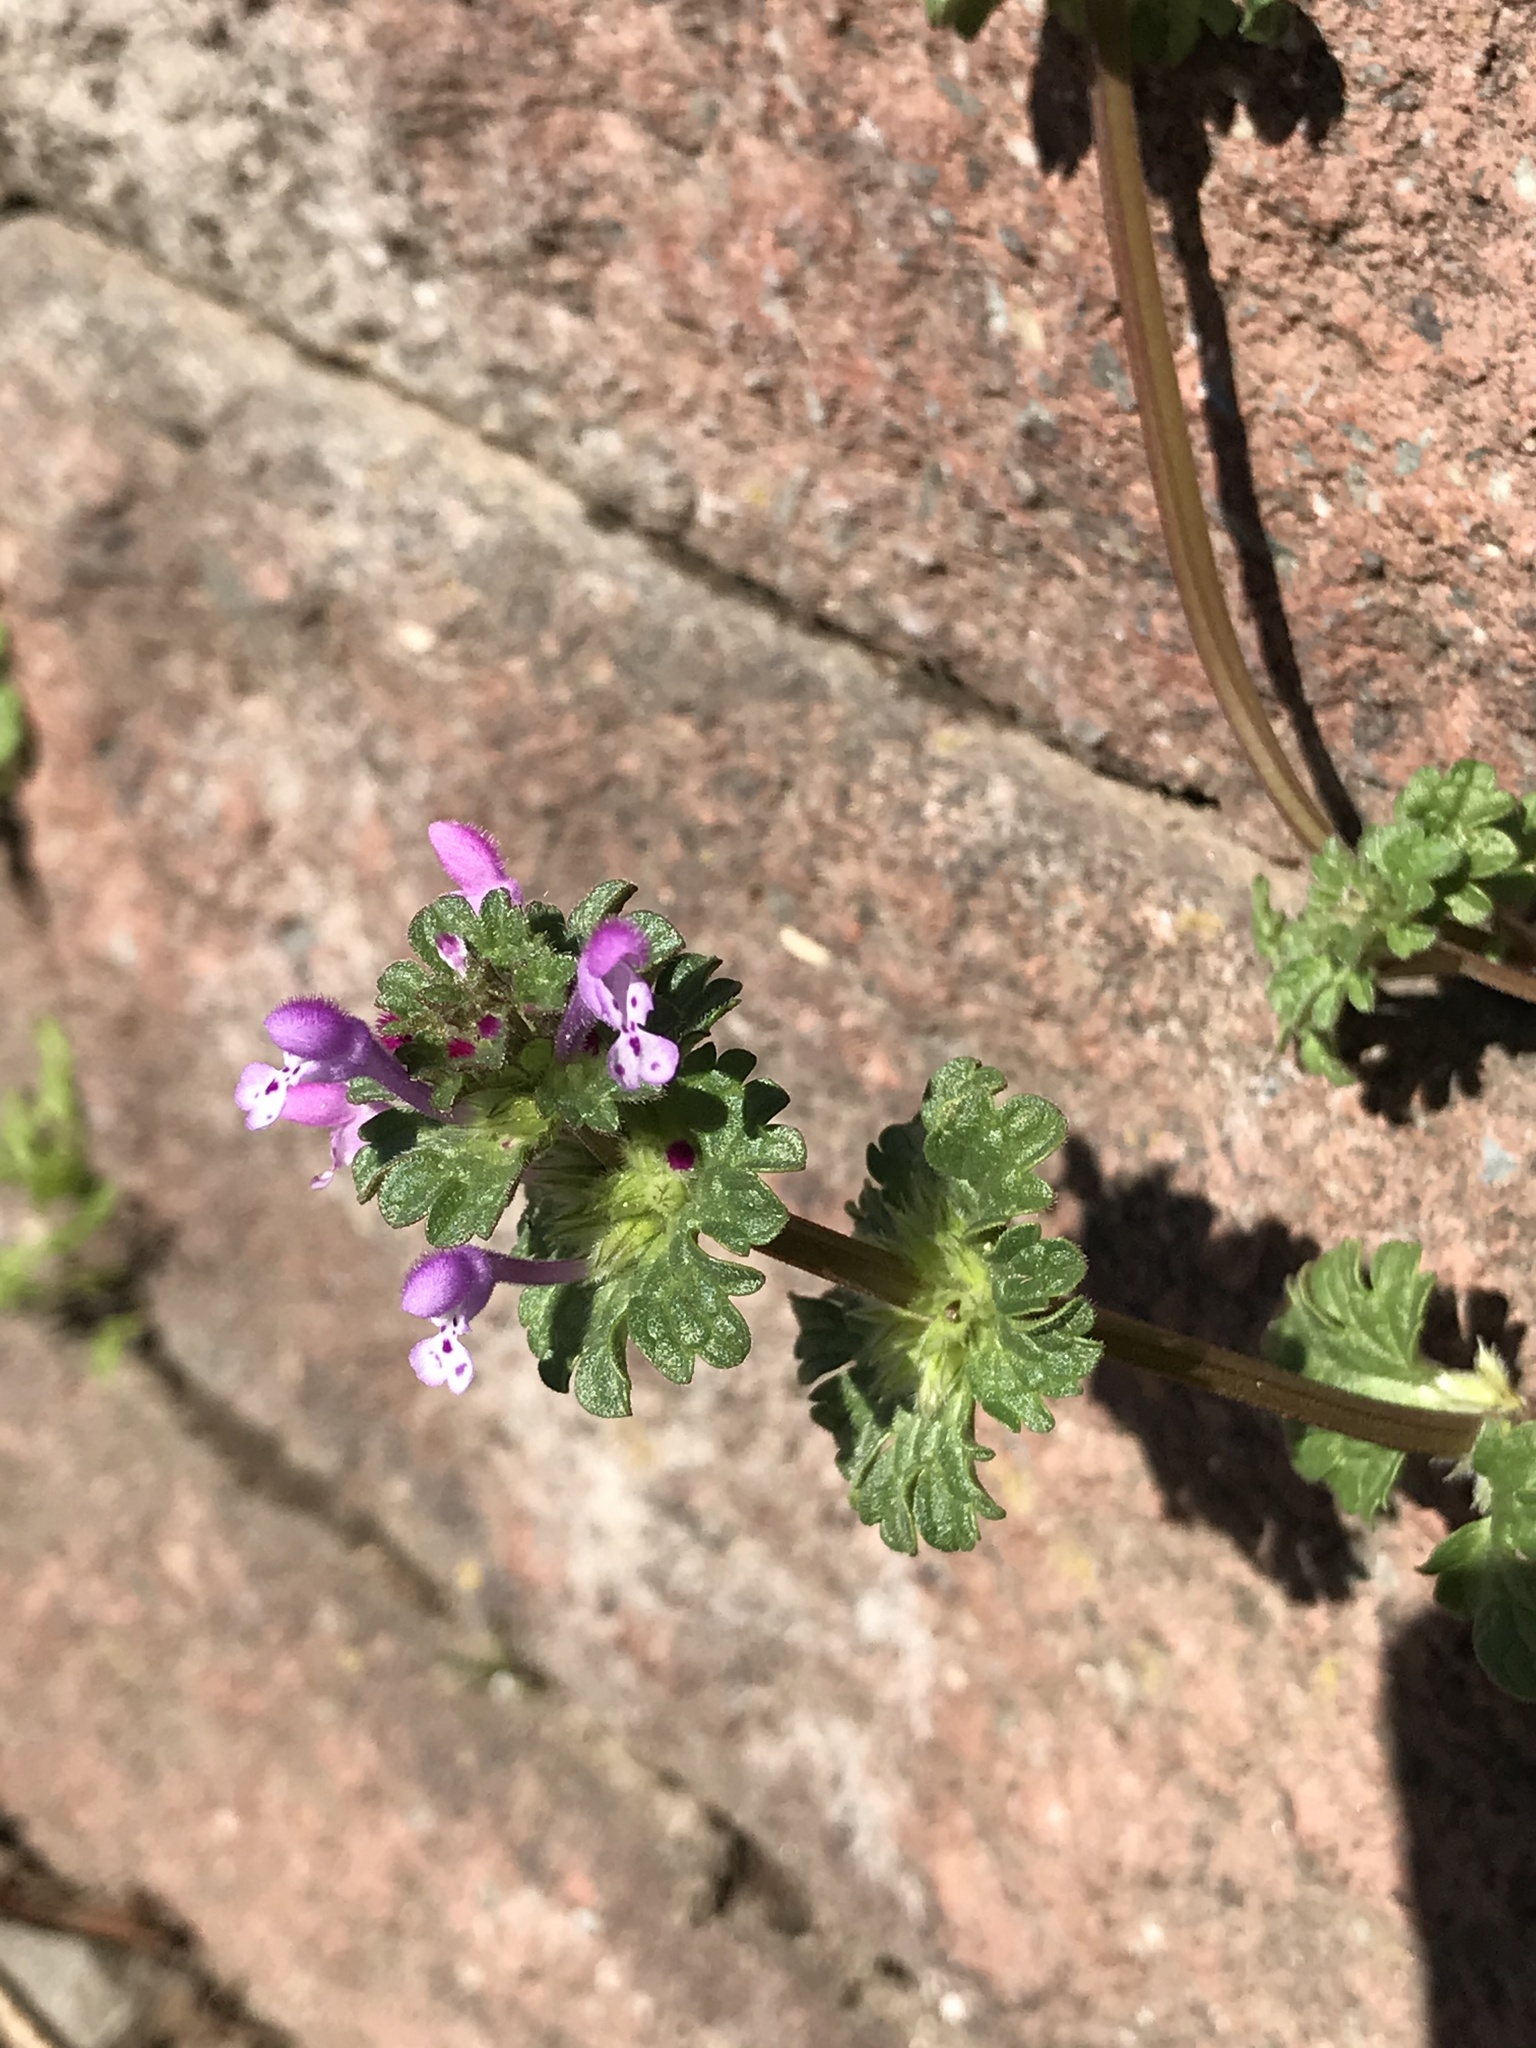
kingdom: Plantae
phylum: Tracheophyta
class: Magnoliopsida
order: Lamiales
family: Lamiaceae
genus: Lamium
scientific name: Lamium amplexicaule
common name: Henbit dead-nettle
